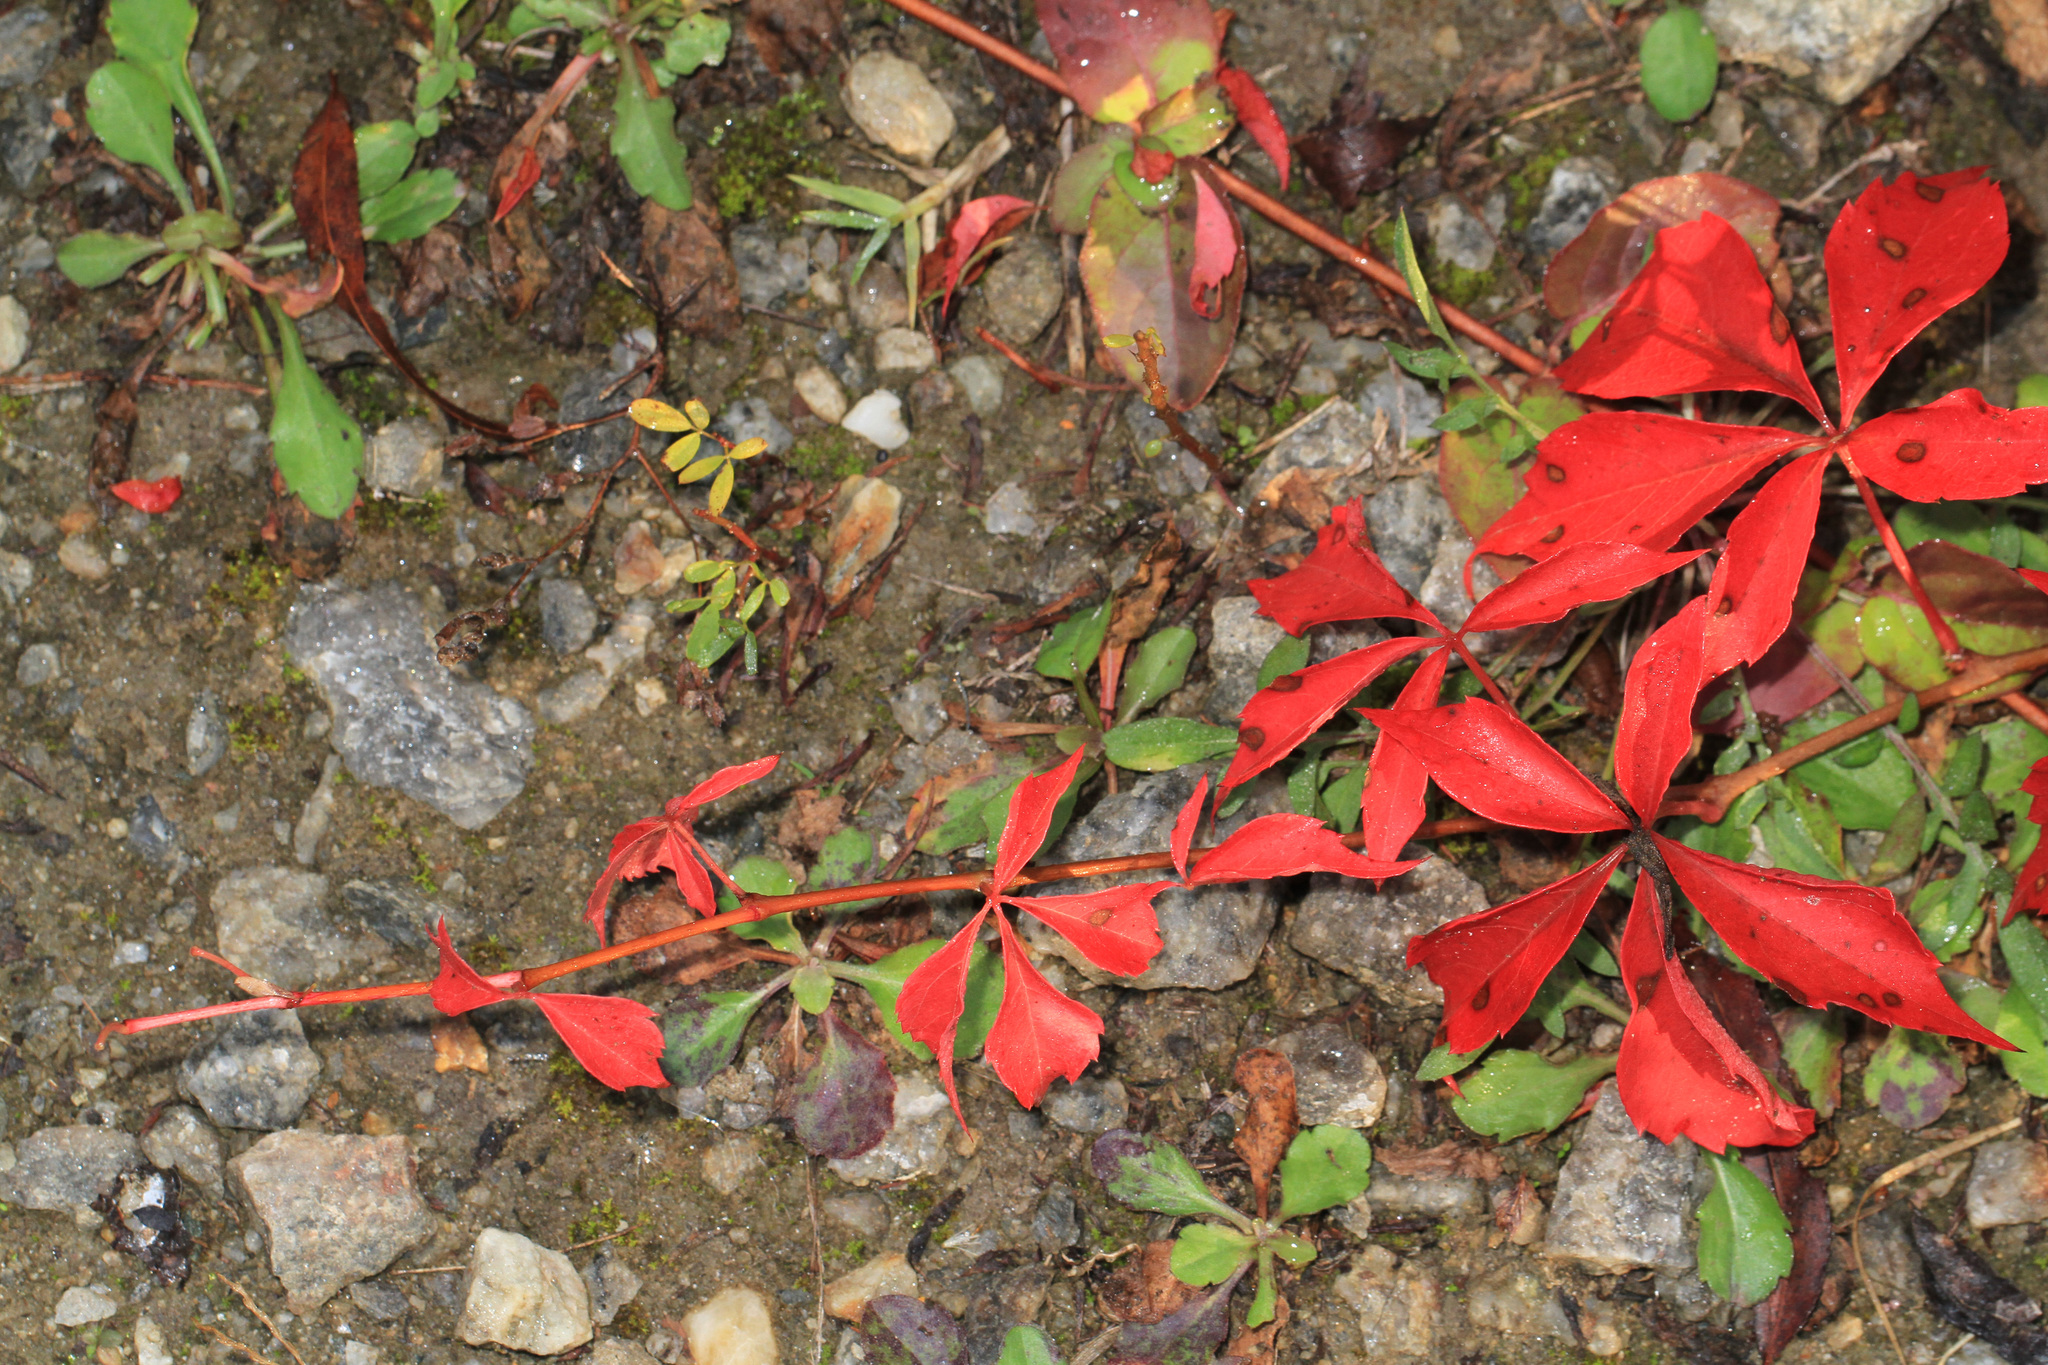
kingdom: Plantae
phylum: Tracheophyta
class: Magnoliopsida
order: Vitales
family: Vitaceae
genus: Parthenocissus
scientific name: Parthenocissus quinquefolia
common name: Virginia-creeper
